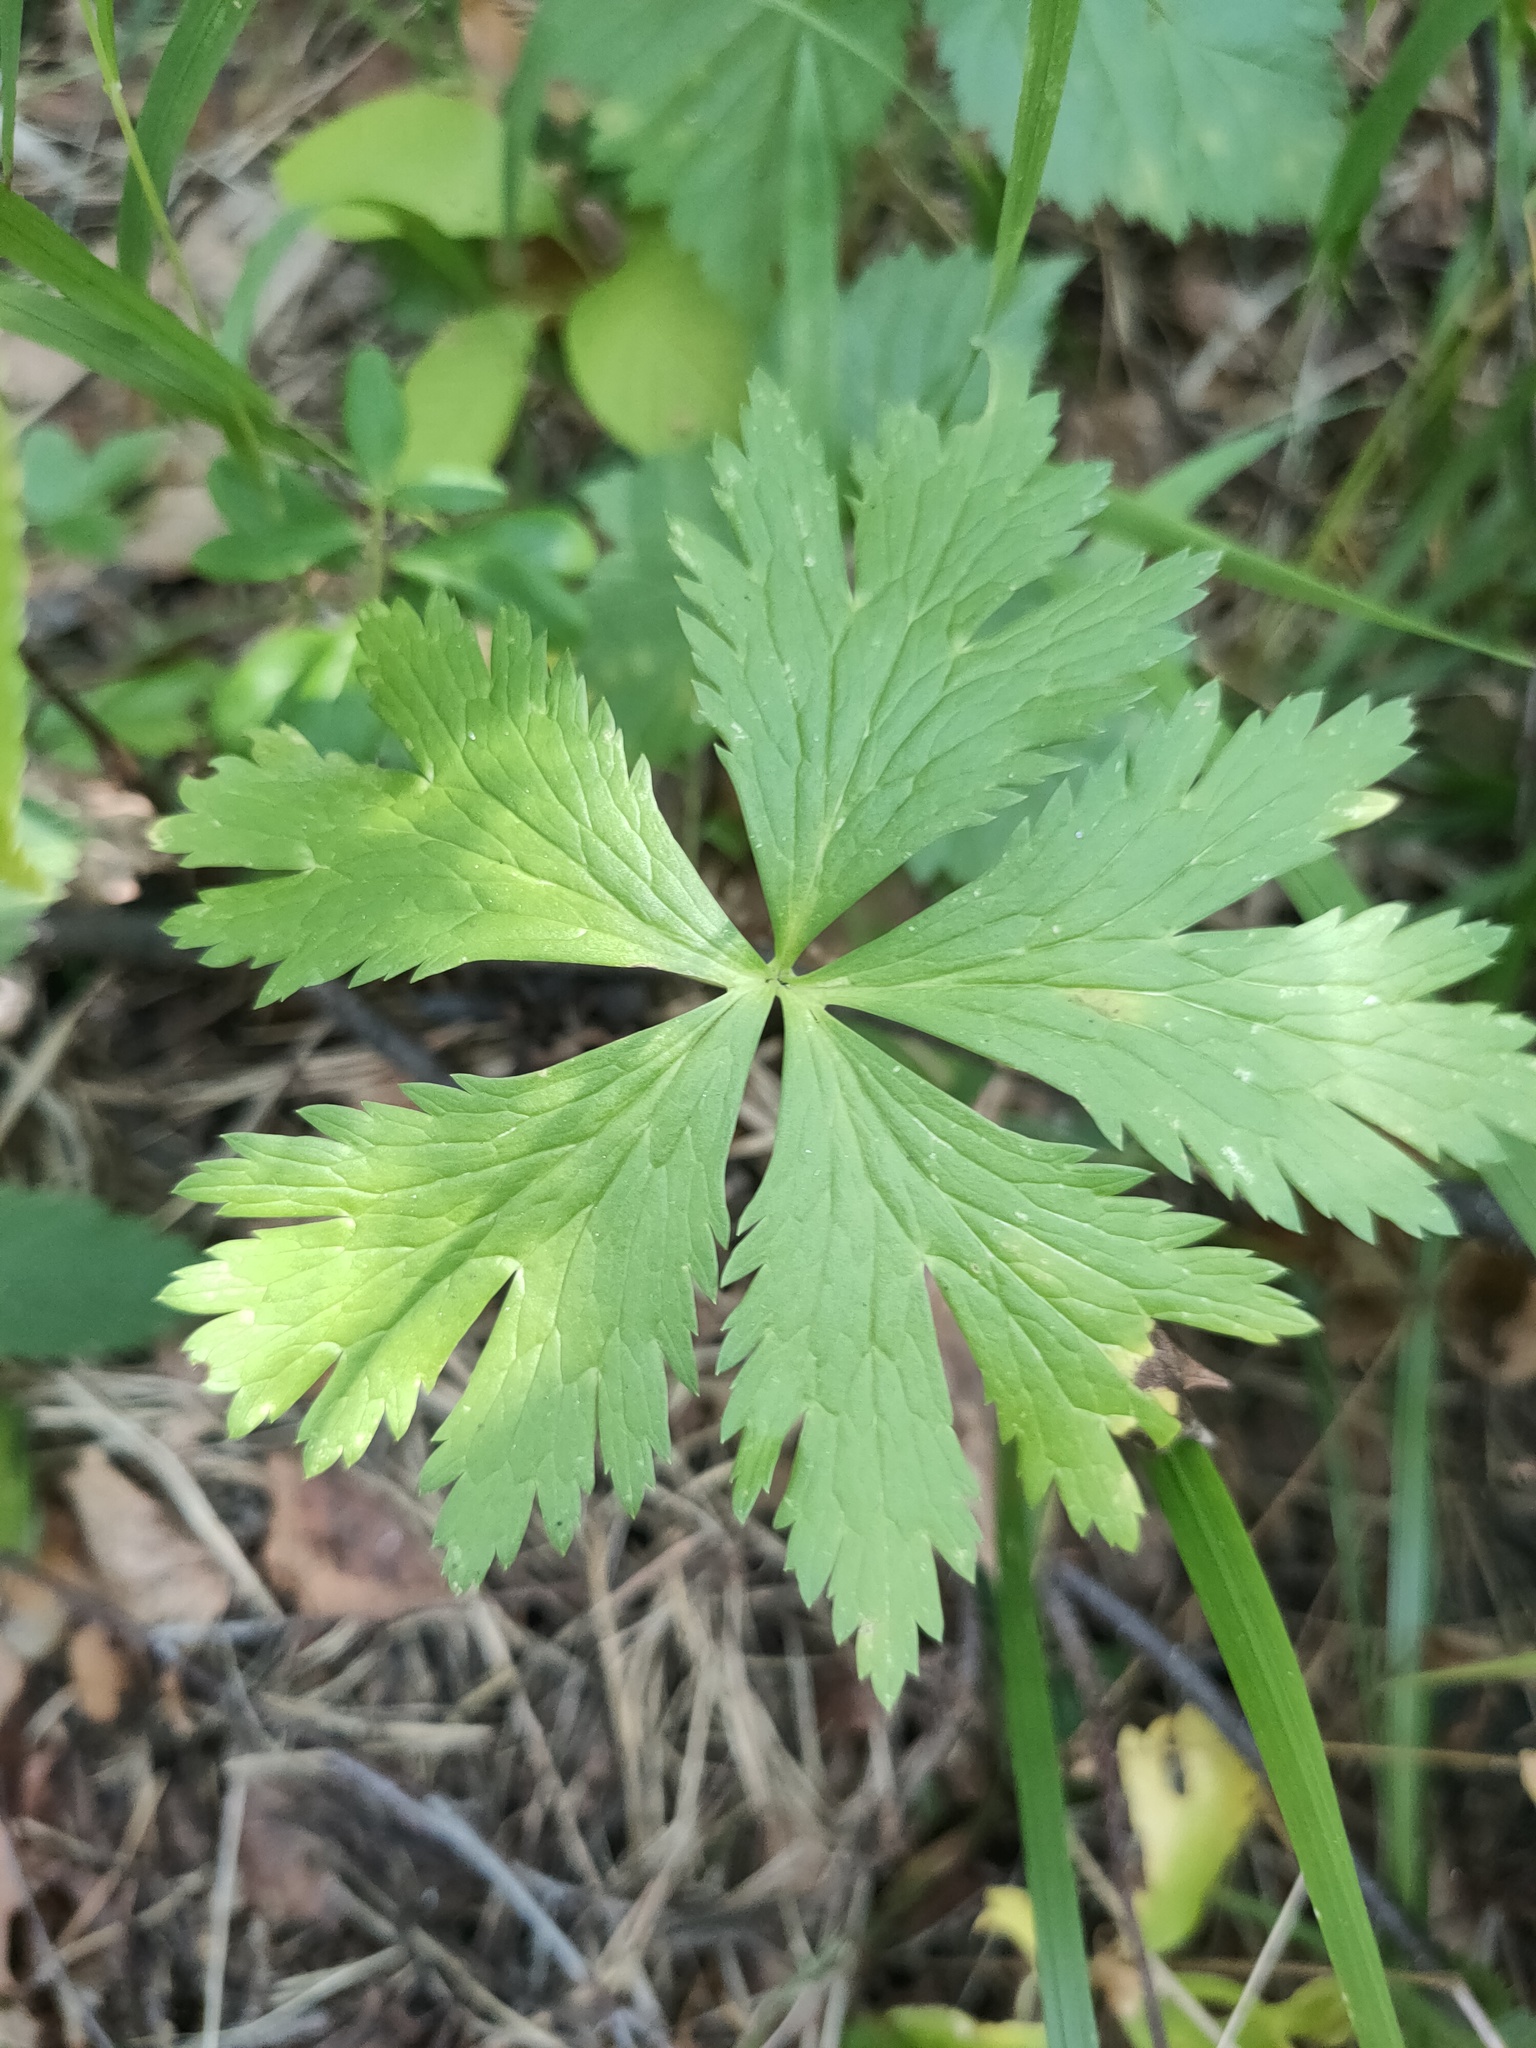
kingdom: Plantae
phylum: Tracheophyta
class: Magnoliopsida
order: Ranunculales
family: Ranunculaceae
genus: Trollius
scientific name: Trollius europaeus
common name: European globeflower
